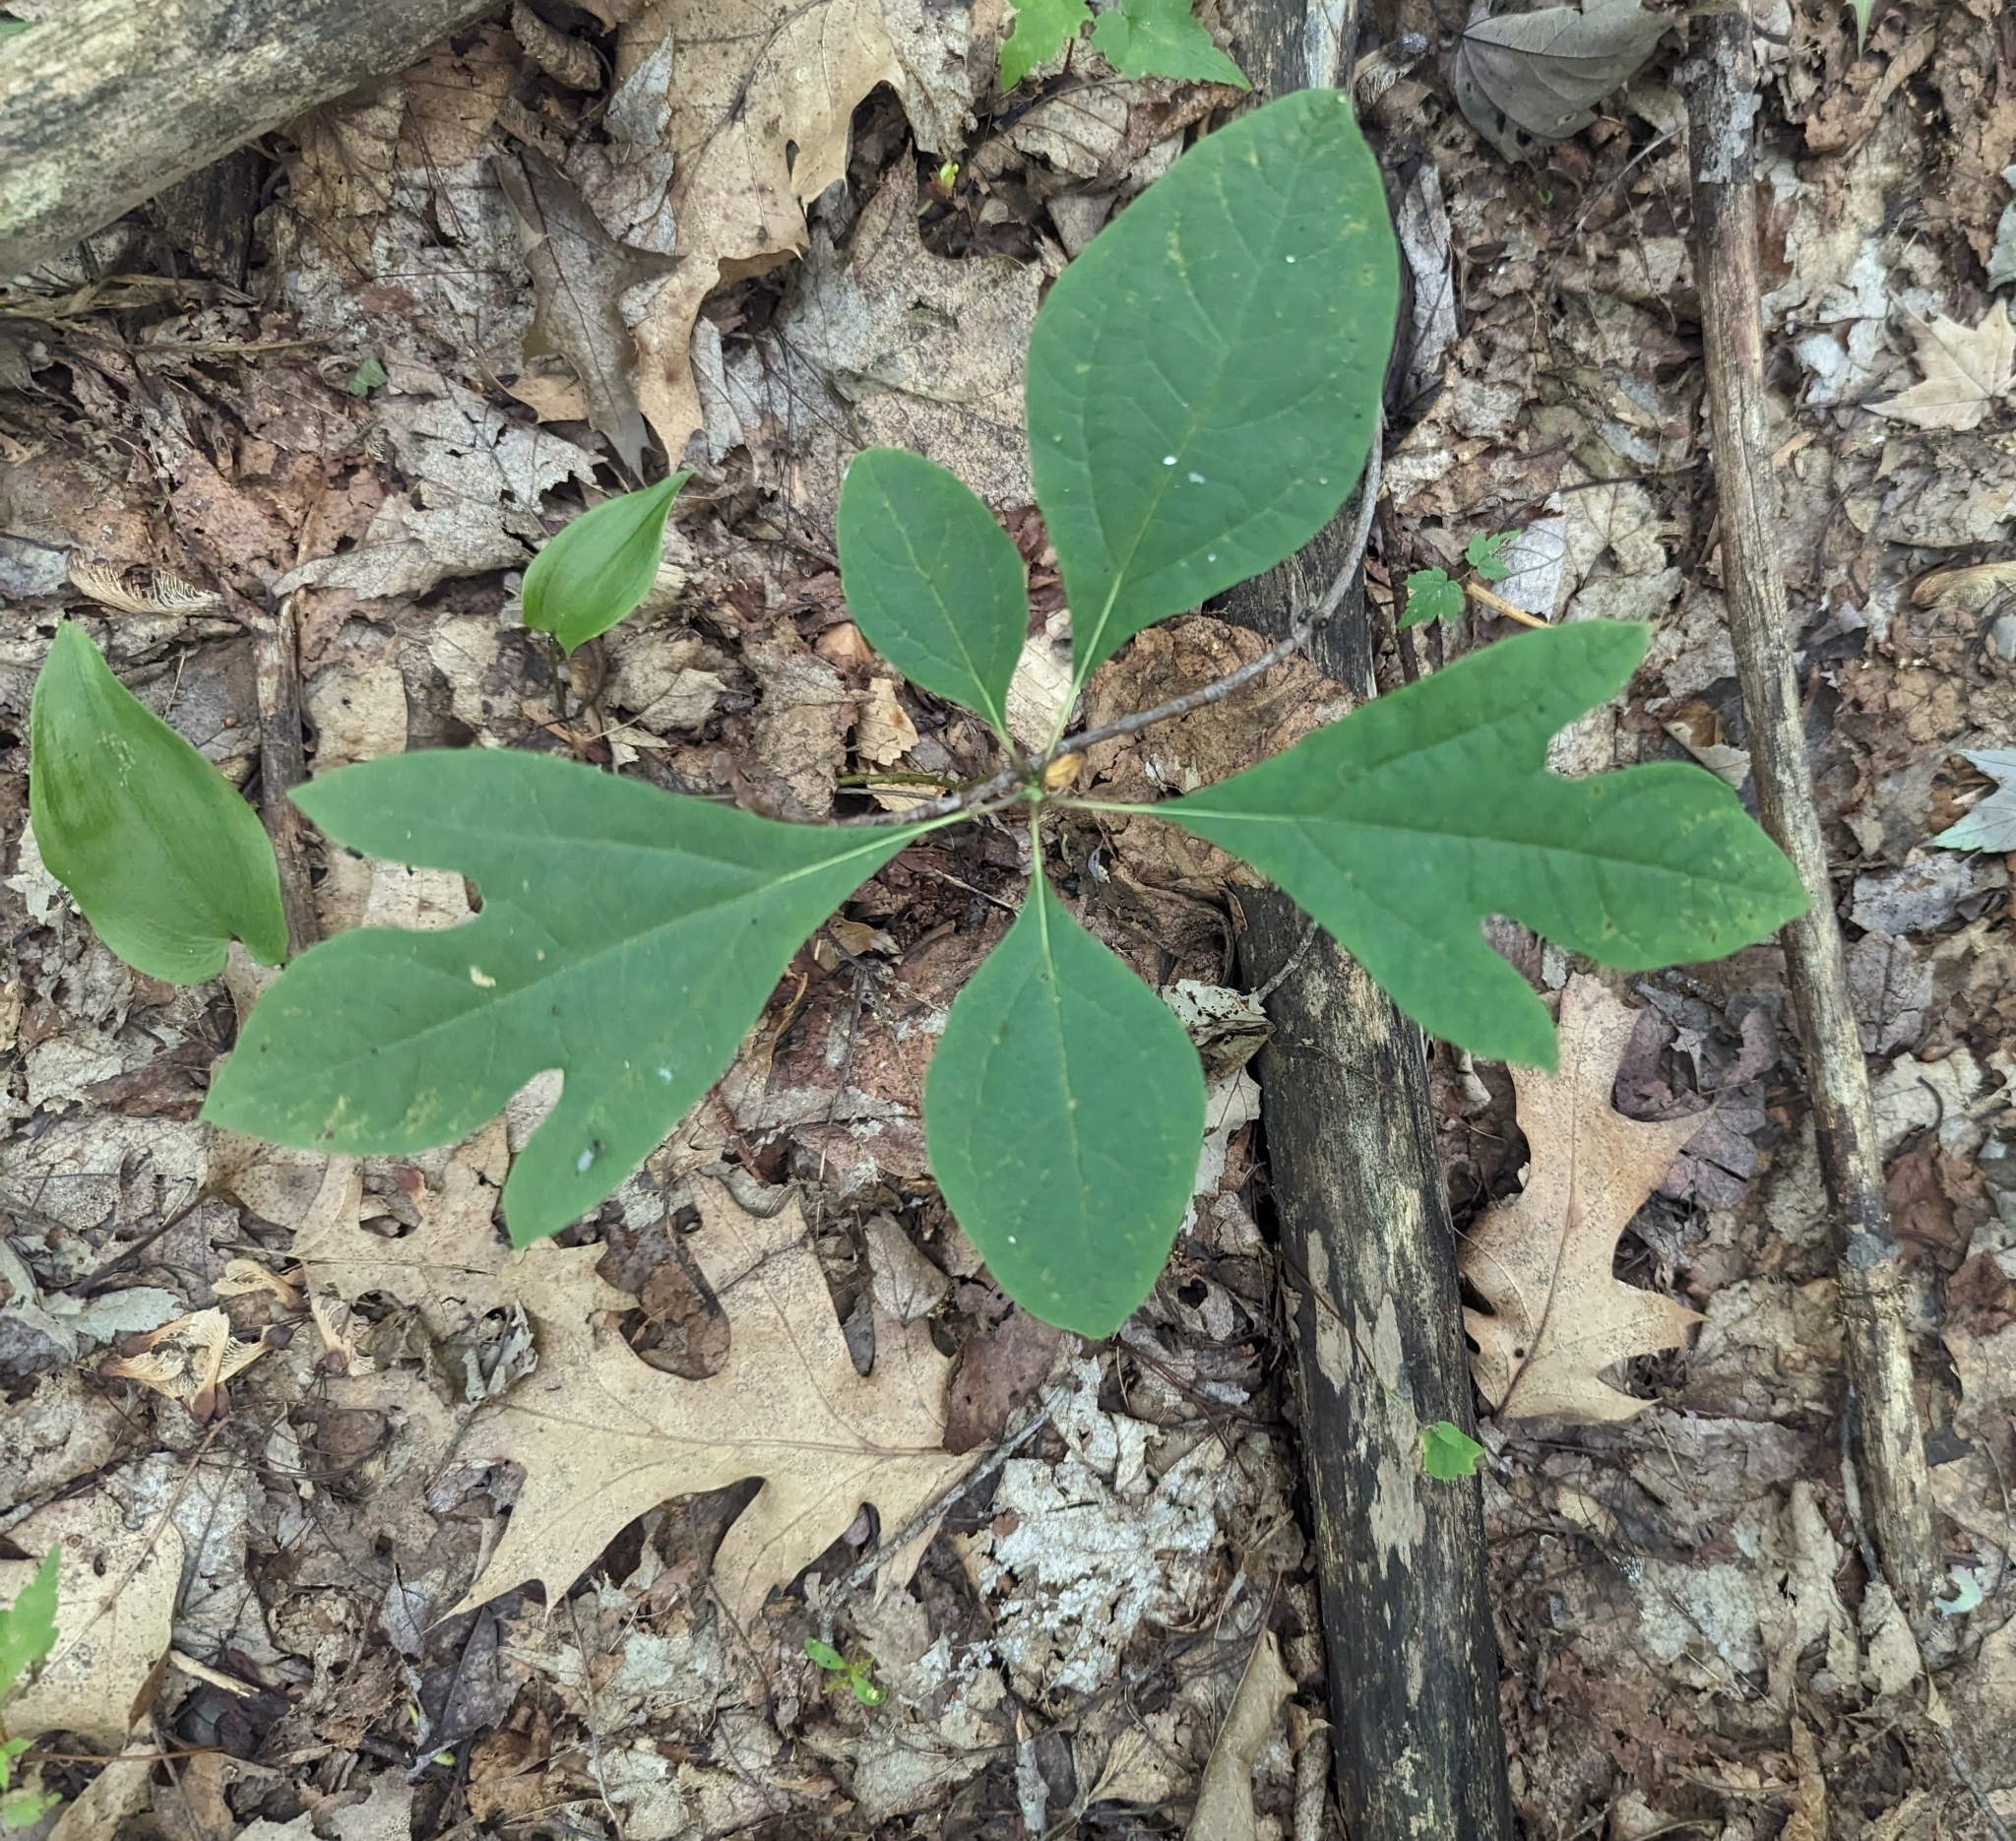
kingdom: Plantae
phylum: Tracheophyta
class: Magnoliopsida
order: Laurales
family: Lauraceae
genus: Sassafras
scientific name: Sassafras albidum
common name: Sassafras
